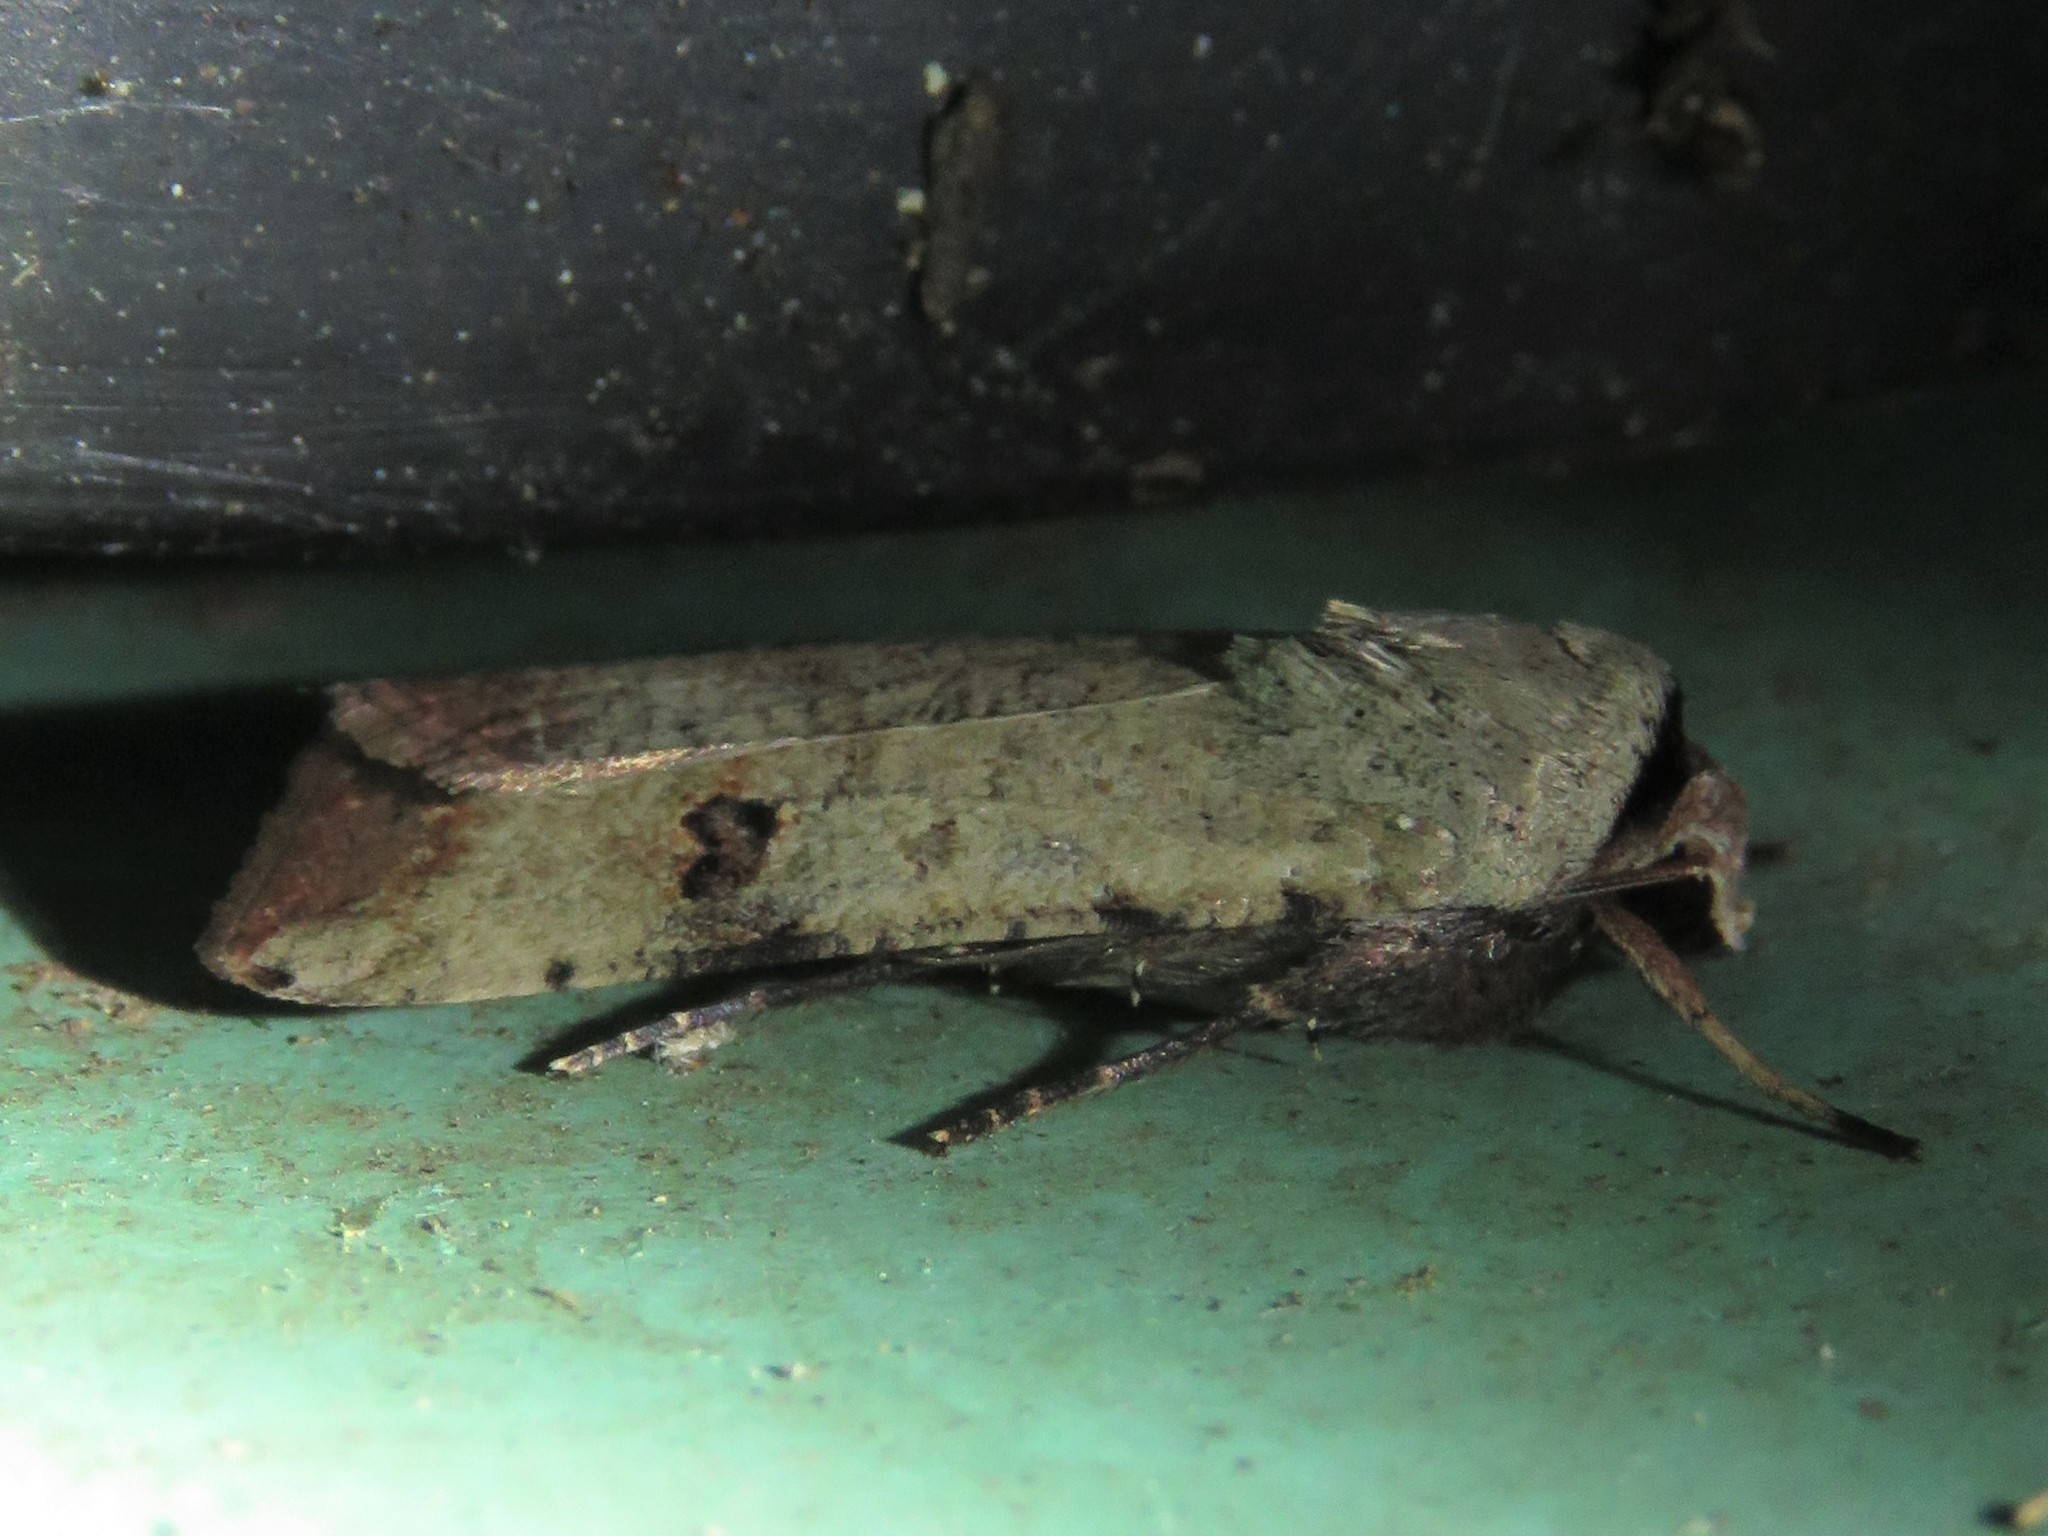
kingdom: Animalia
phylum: Arthropoda
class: Insecta
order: Lepidoptera
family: Noctuidae
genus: Anicla
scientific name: Anicla infecta
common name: Green cutworm
